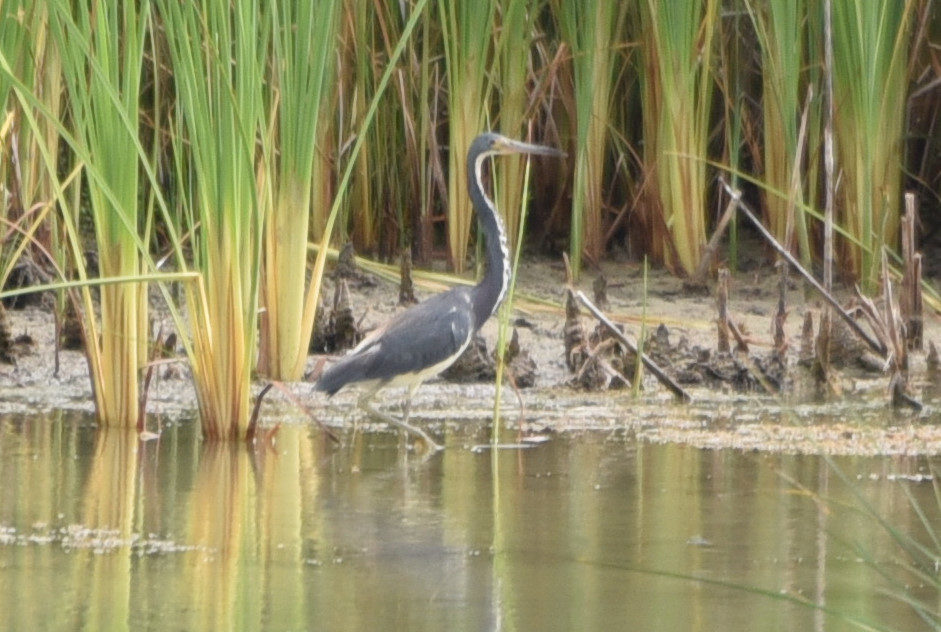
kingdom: Animalia
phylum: Chordata
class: Aves
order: Pelecaniformes
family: Ardeidae
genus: Egretta
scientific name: Egretta tricolor
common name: Tricolored heron
